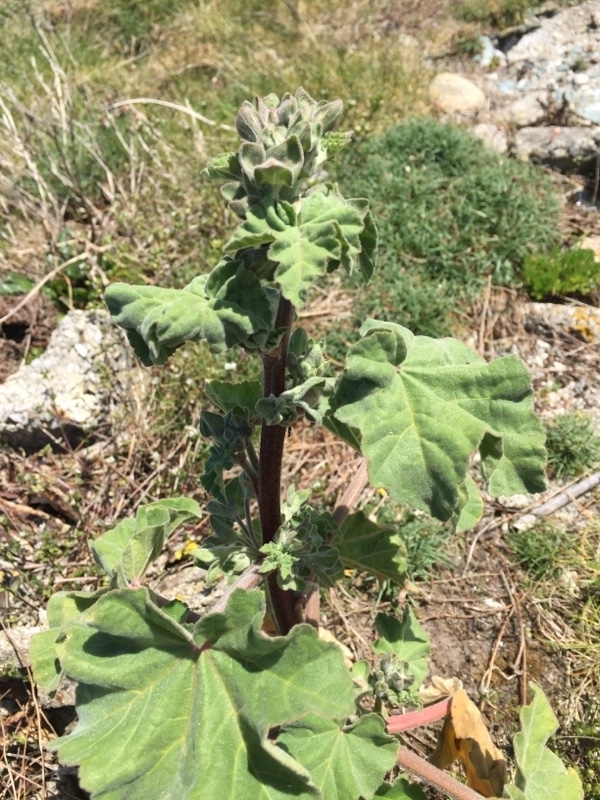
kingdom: Plantae
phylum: Tracheophyta
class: Magnoliopsida
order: Malvales
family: Malvaceae
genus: Malva
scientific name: Malva arborea
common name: Tree mallow
